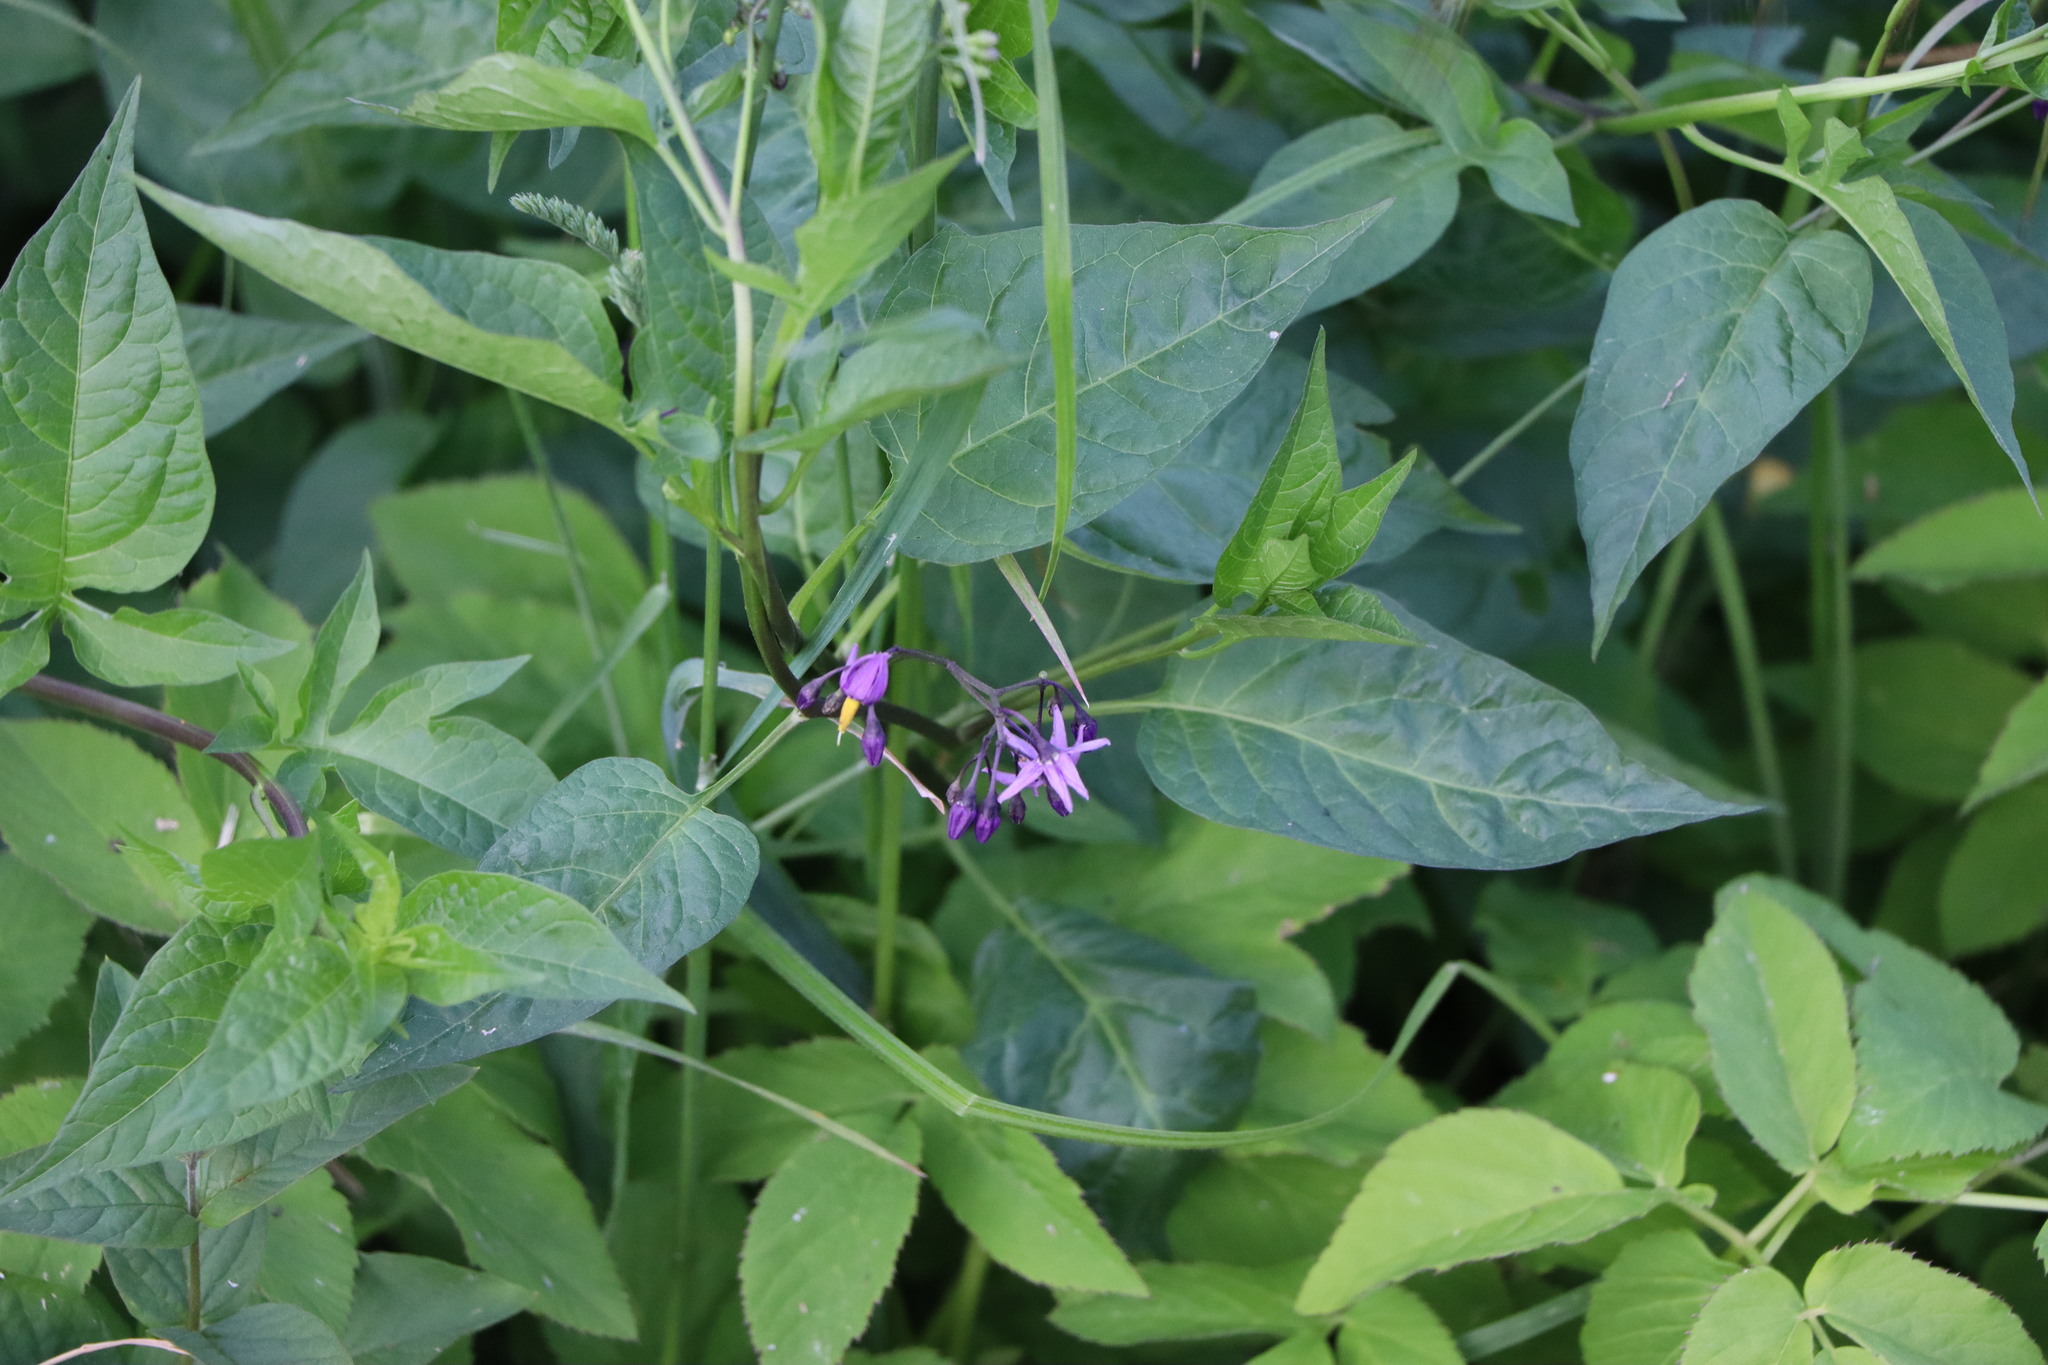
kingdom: Plantae
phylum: Tracheophyta
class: Magnoliopsida
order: Solanales
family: Solanaceae
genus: Solanum
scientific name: Solanum dulcamara
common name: Climbing nightshade
